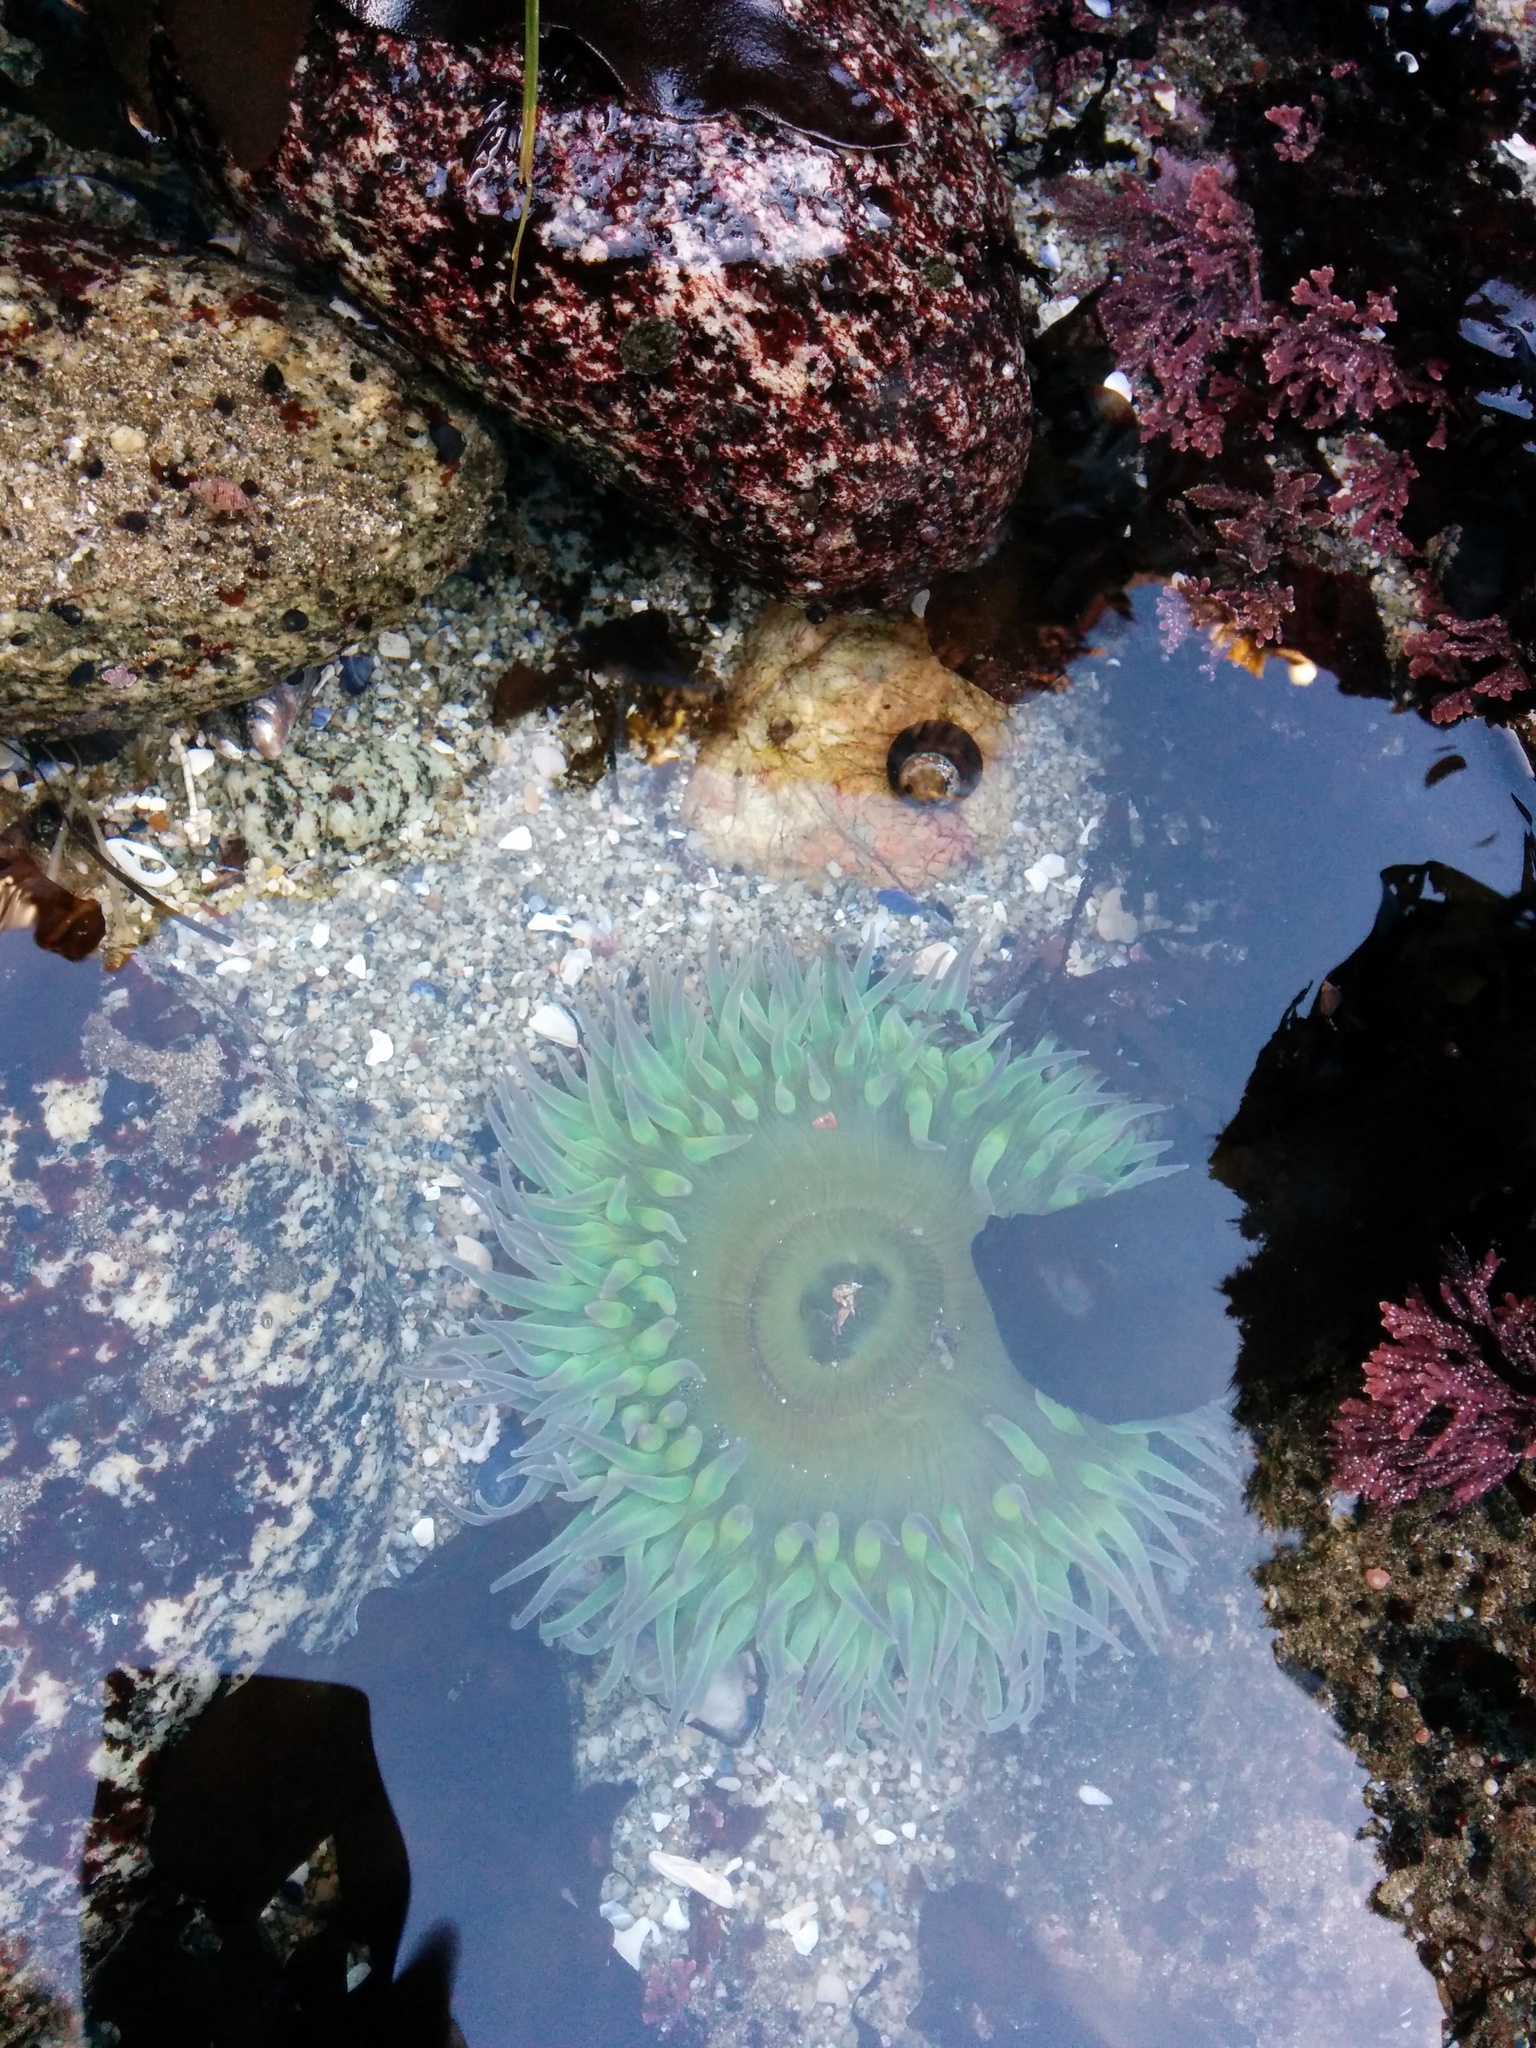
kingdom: Animalia
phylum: Cnidaria
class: Anthozoa
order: Actiniaria
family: Actiniidae
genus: Anthopleura
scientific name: Anthopleura xanthogrammica
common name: Giant green anemone
